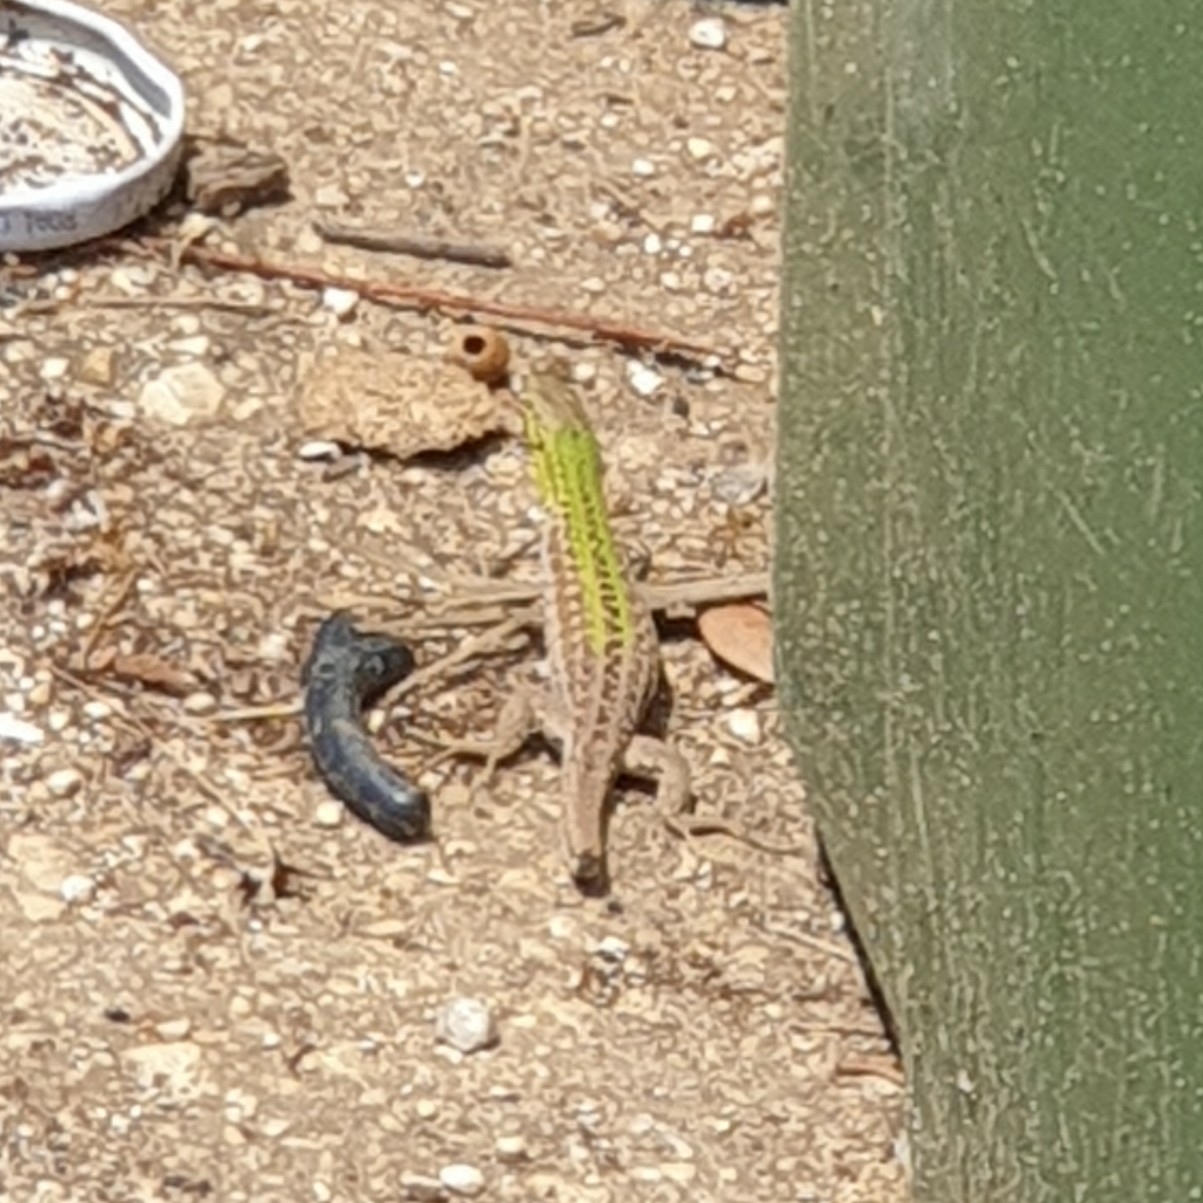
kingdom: Animalia
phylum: Chordata
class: Squamata
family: Lacertidae
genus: Podarcis
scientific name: Podarcis siculus
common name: Italian wall lizard
